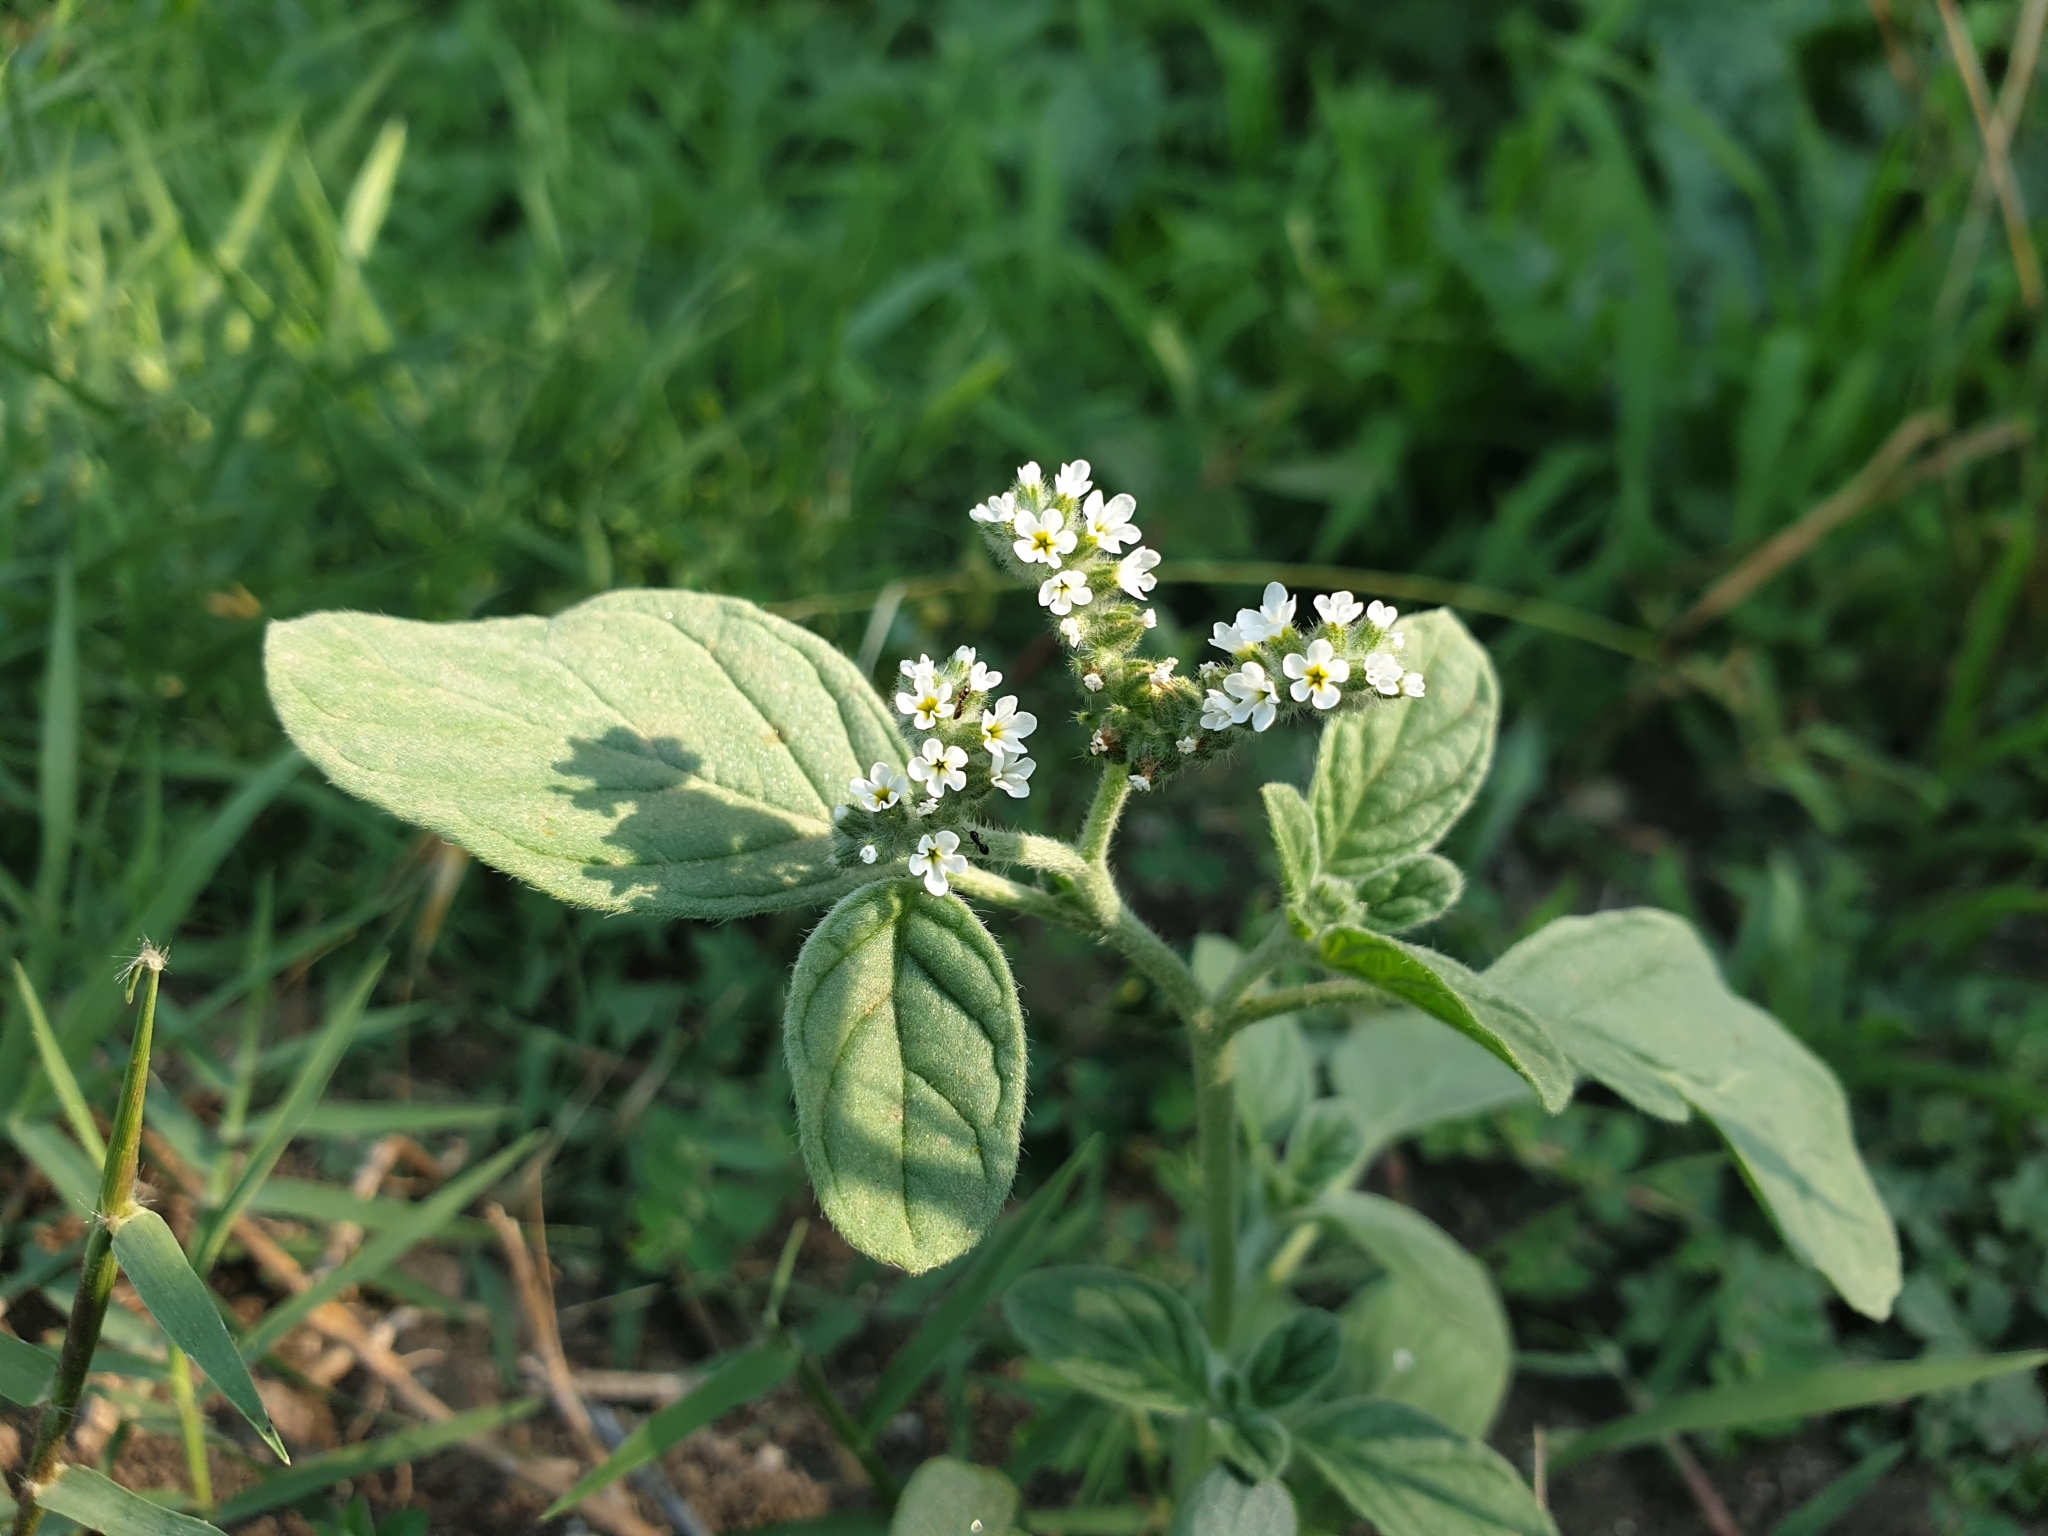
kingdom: Plantae
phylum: Tracheophyta
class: Magnoliopsida
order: Boraginales
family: Heliotropiaceae
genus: Heliotropium
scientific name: Heliotropium europaeum
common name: European heliotrope
